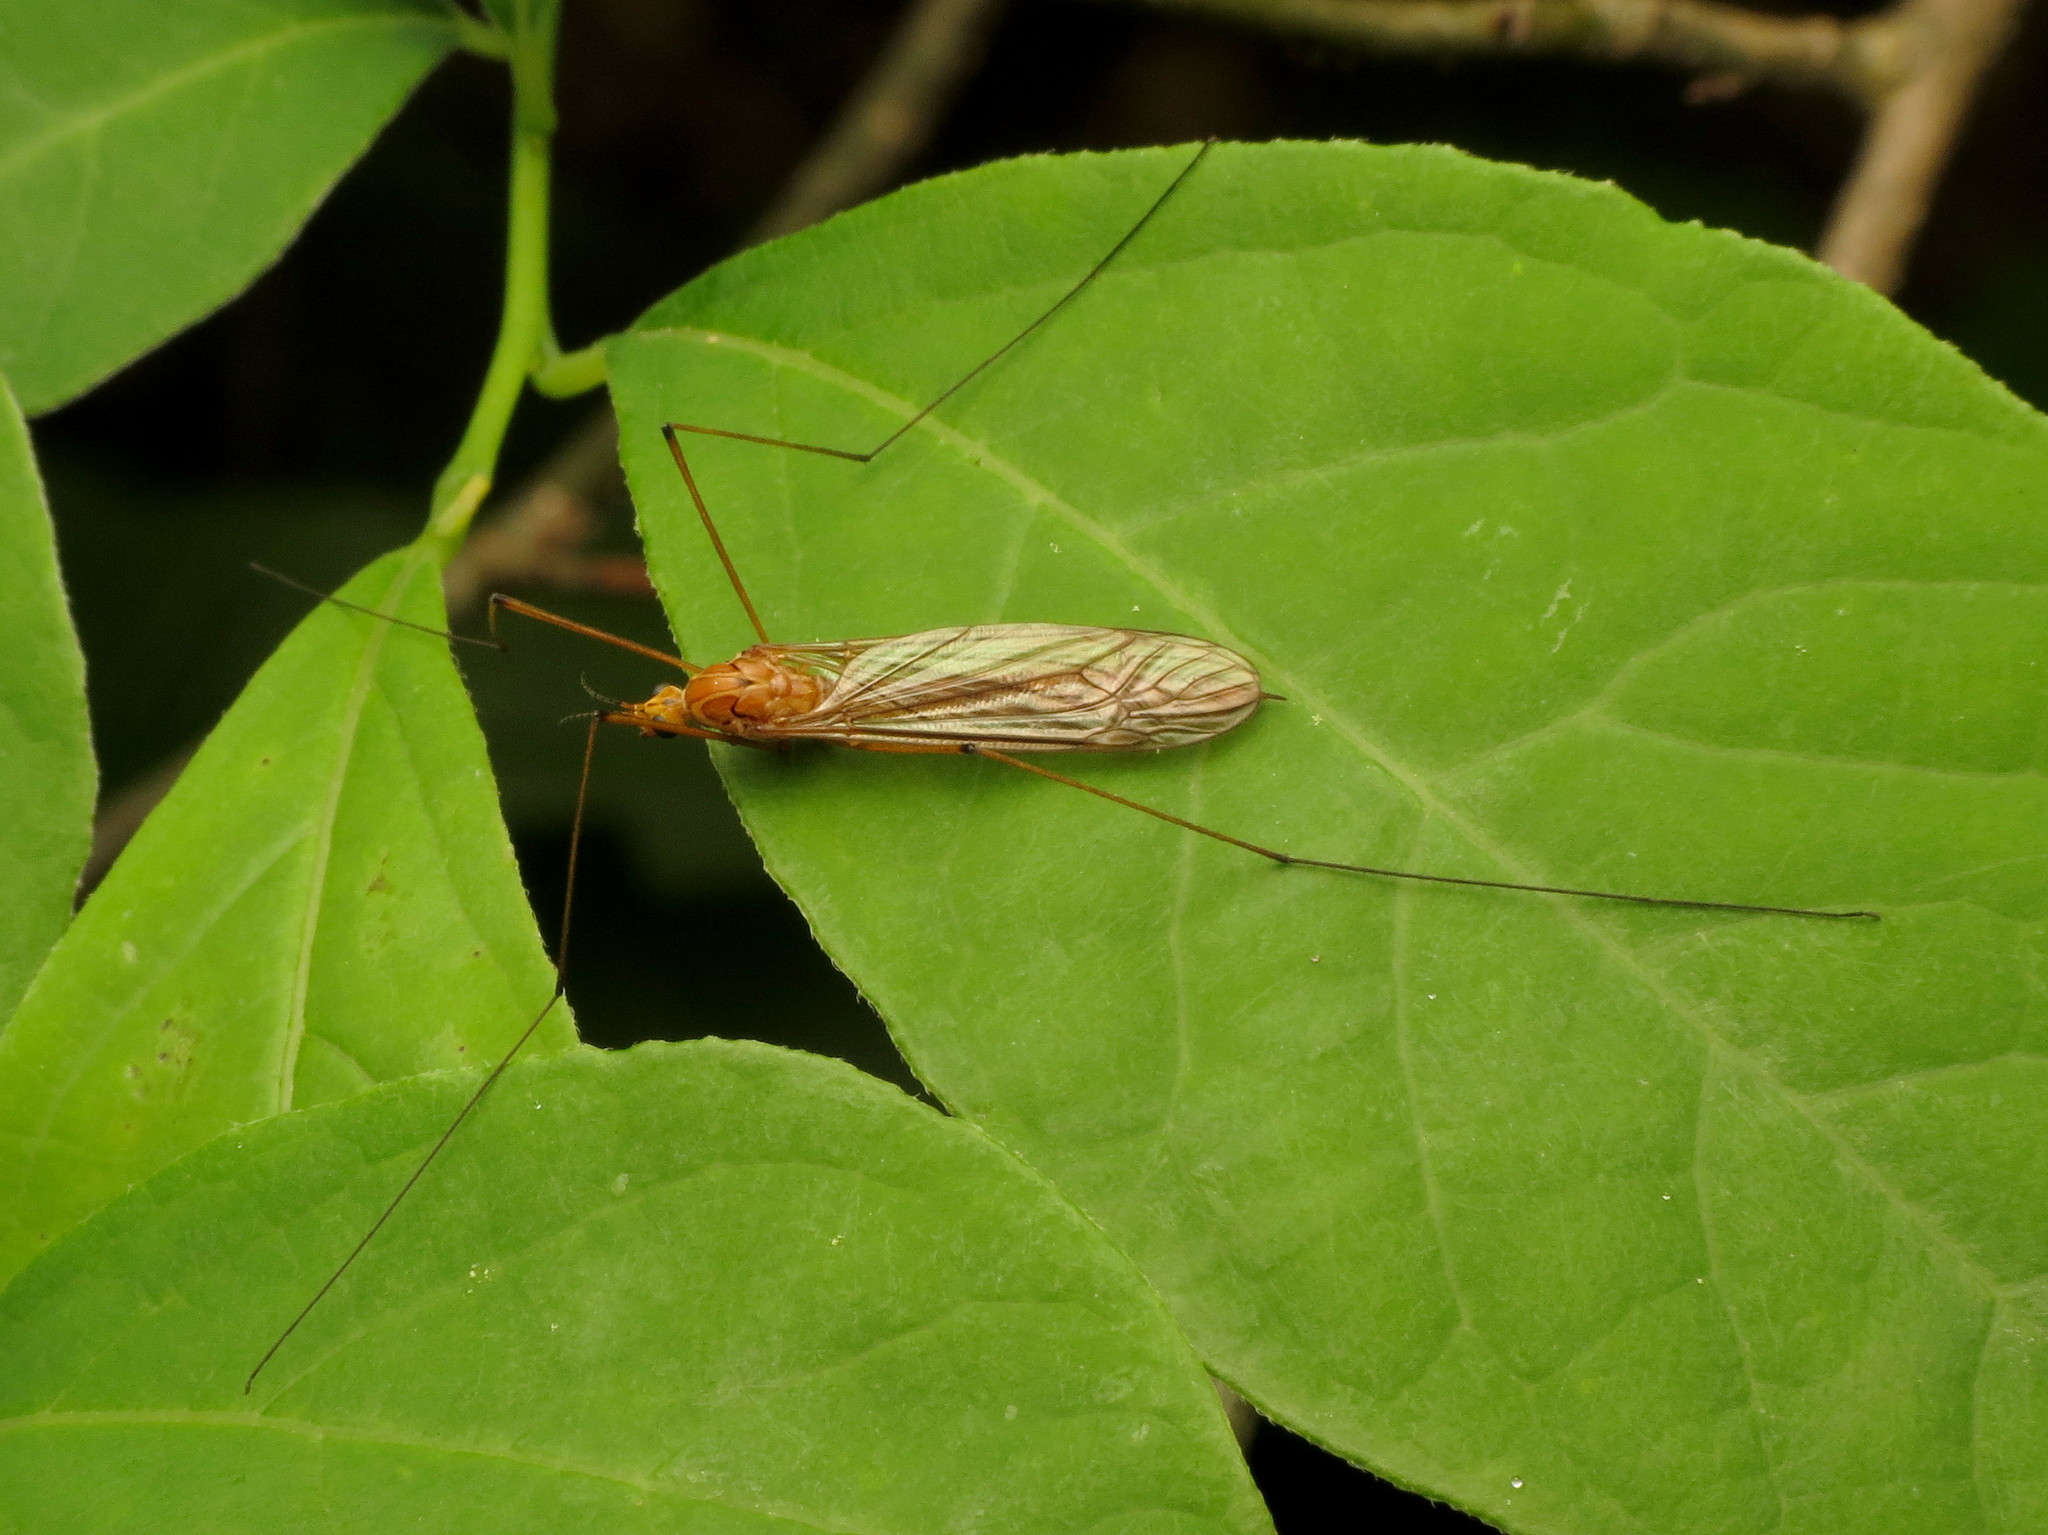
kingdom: Animalia
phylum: Arthropoda
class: Insecta
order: Diptera
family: Tipulidae
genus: Nephrotoma
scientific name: Nephrotoma ferruginea
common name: Ferruginous tiger crane fly
